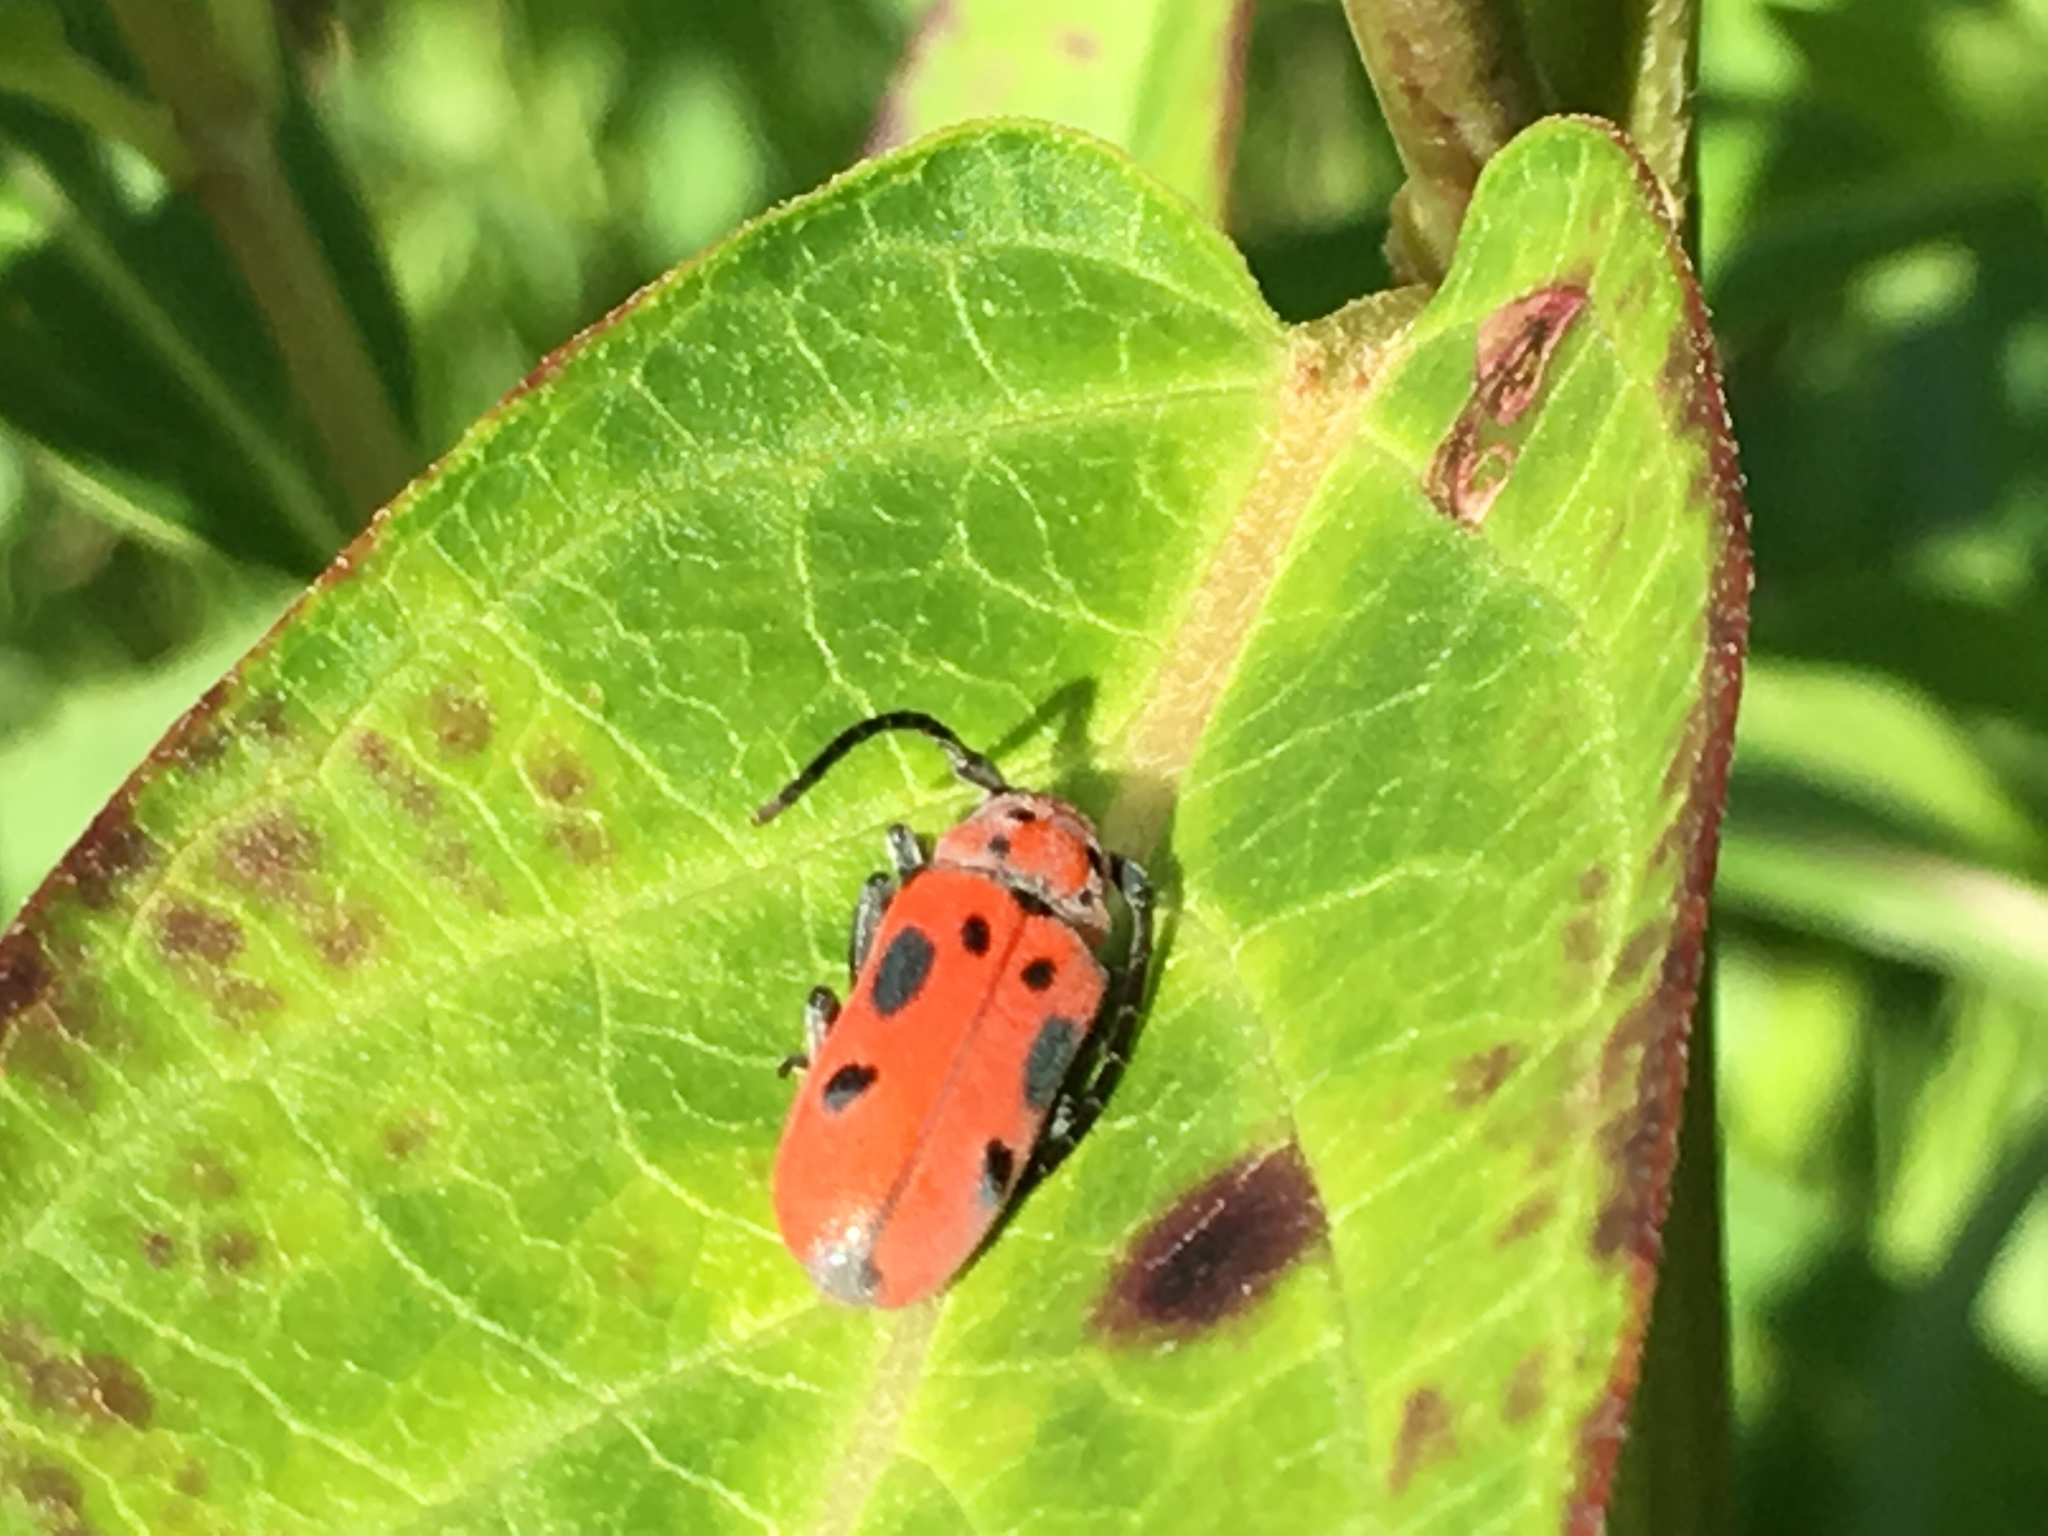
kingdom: Animalia
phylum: Arthropoda
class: Insecta
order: Coleoptera
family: Cerambycidae
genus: Tetraopes
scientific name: Tetraopes tetrophthalmus
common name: Red milkweed beetle
